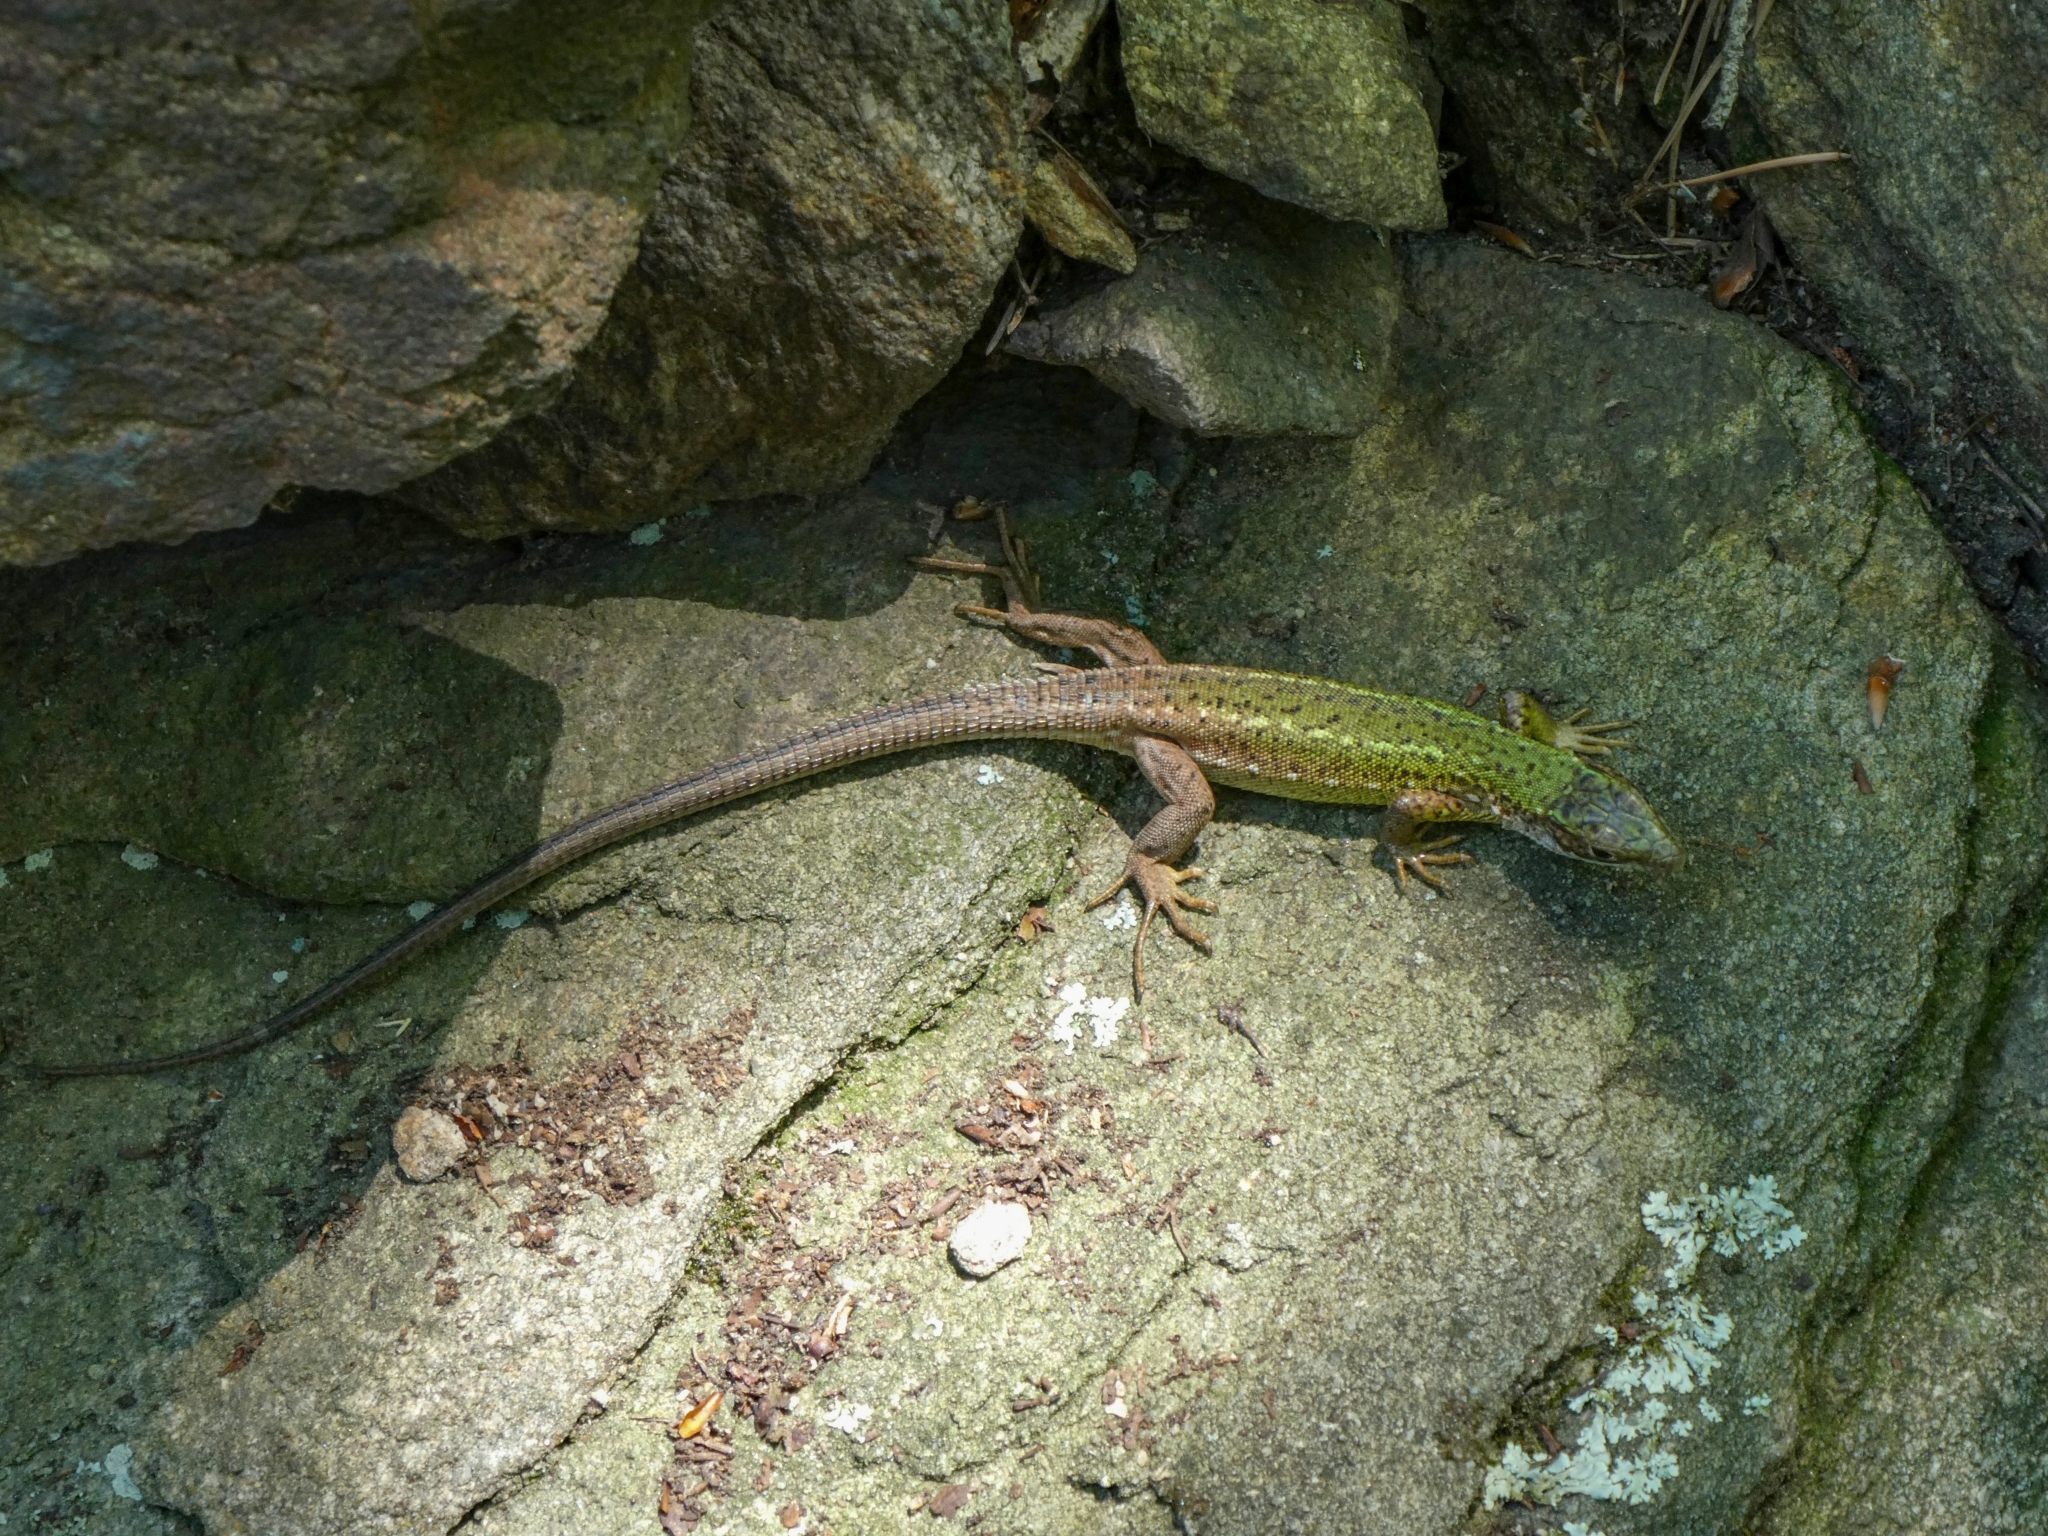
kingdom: Animalia
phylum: Chordata
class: Squamata
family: Lacertidae
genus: Lacerta
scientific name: Lacerta viridis
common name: European green lizard
